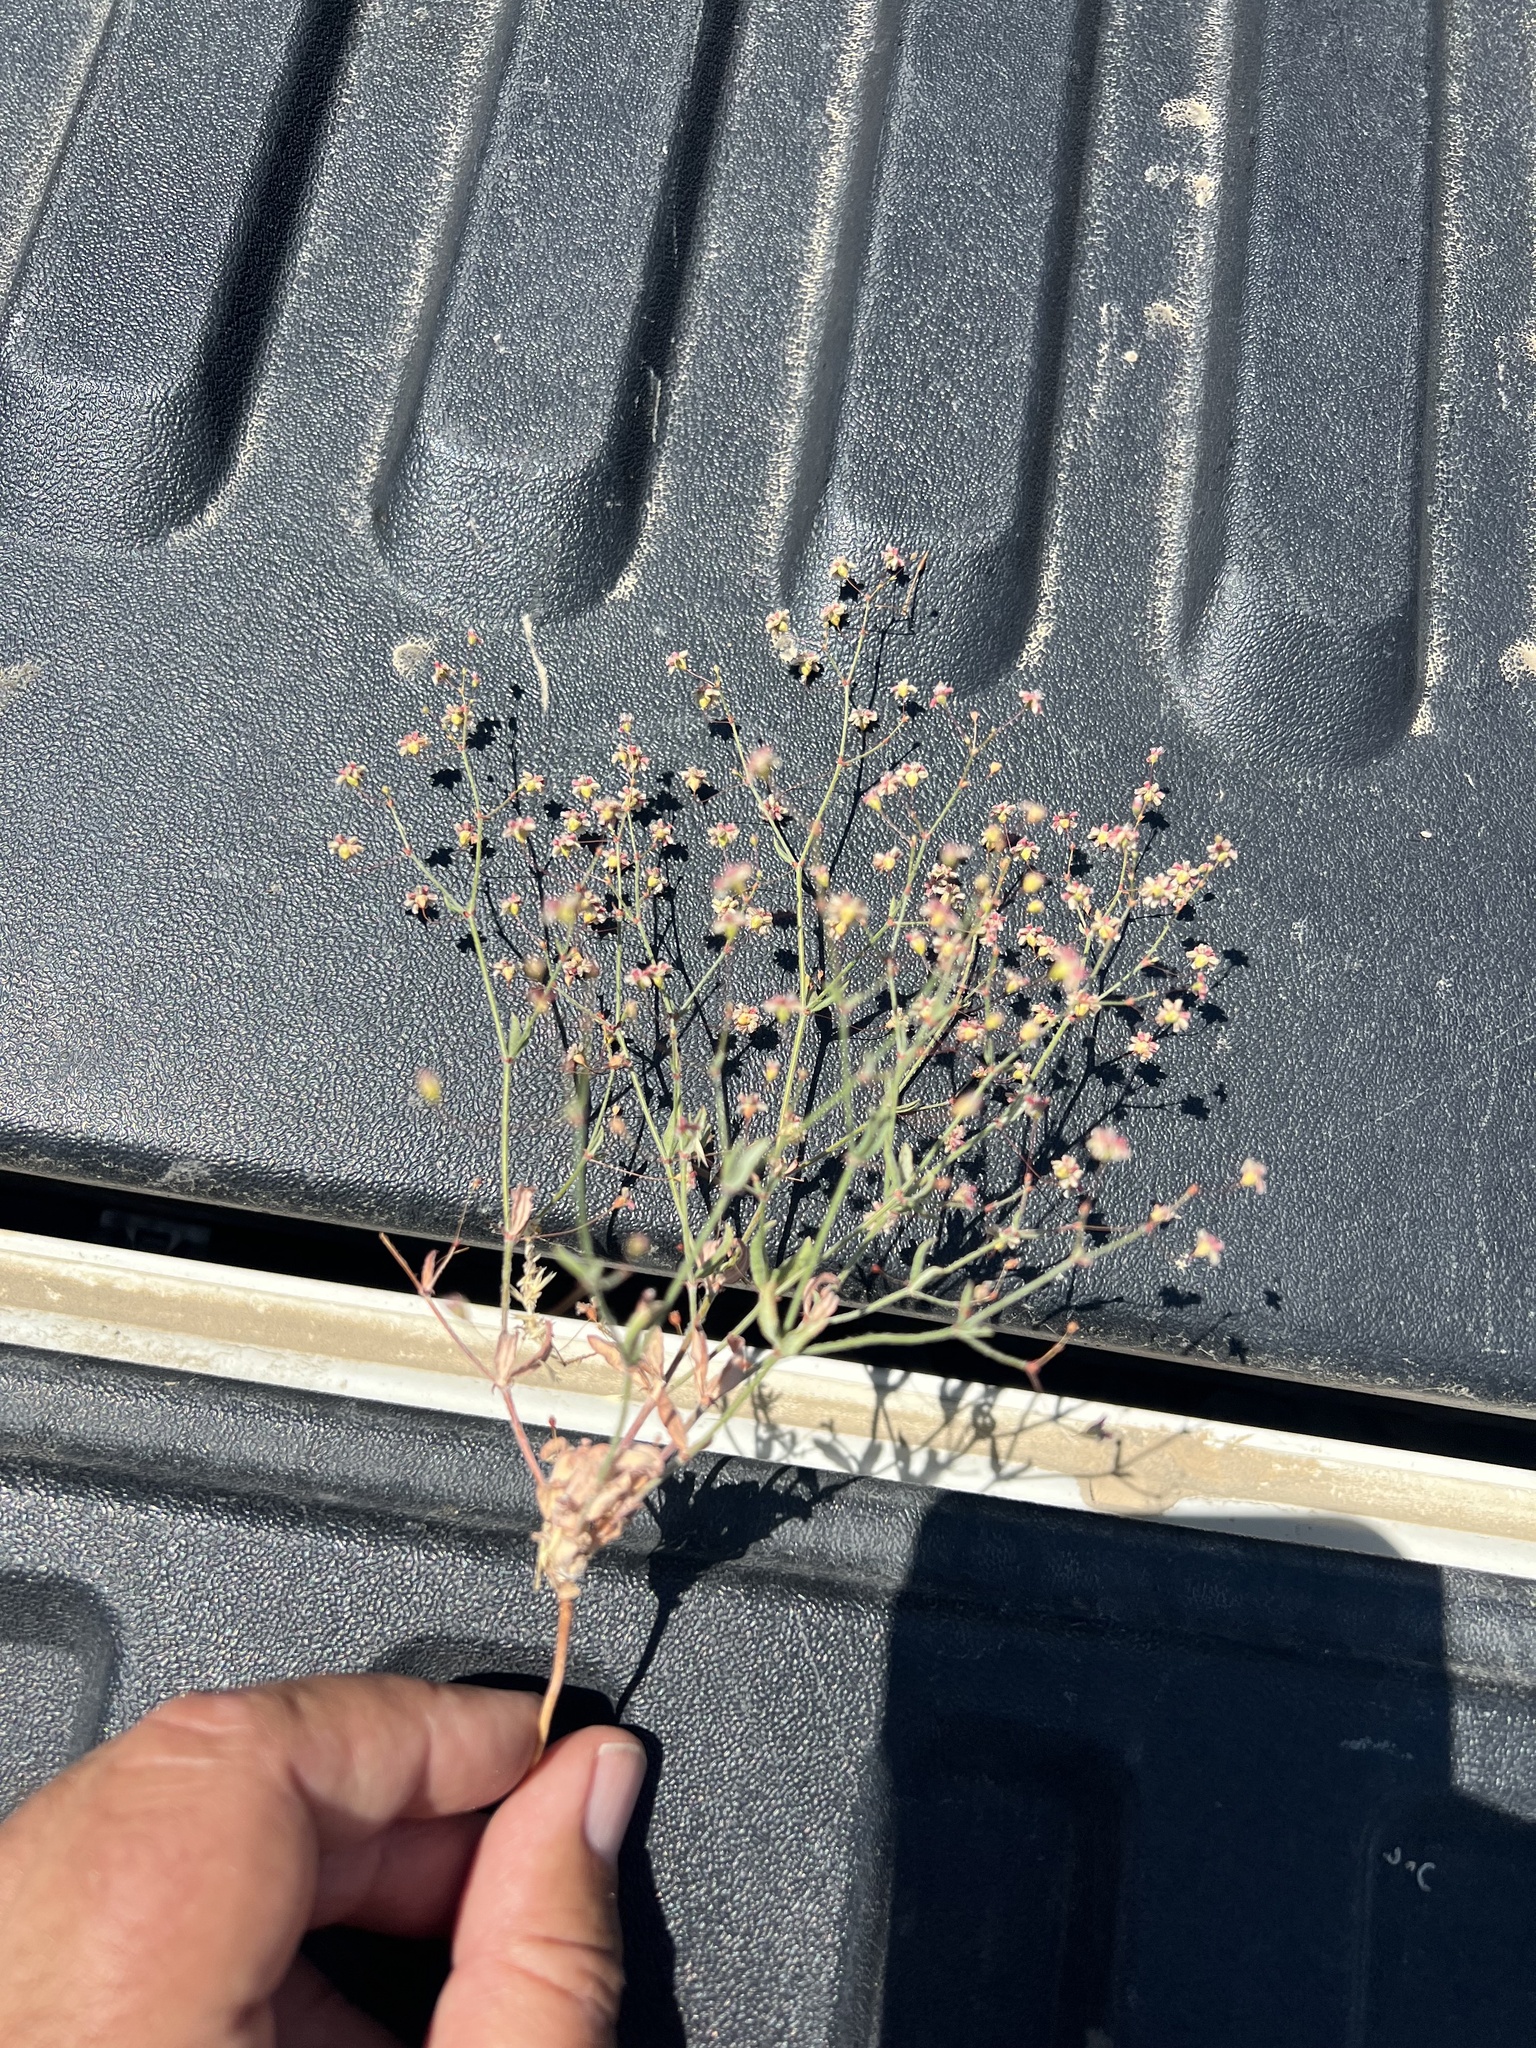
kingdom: Plantae
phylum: Tracheophyta
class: Magnoliopsida
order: Caryophyllales
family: Polygonaceae
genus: Eriogonum
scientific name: Eriogonum gracillimum
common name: Rose-and-white wild buckwheat
